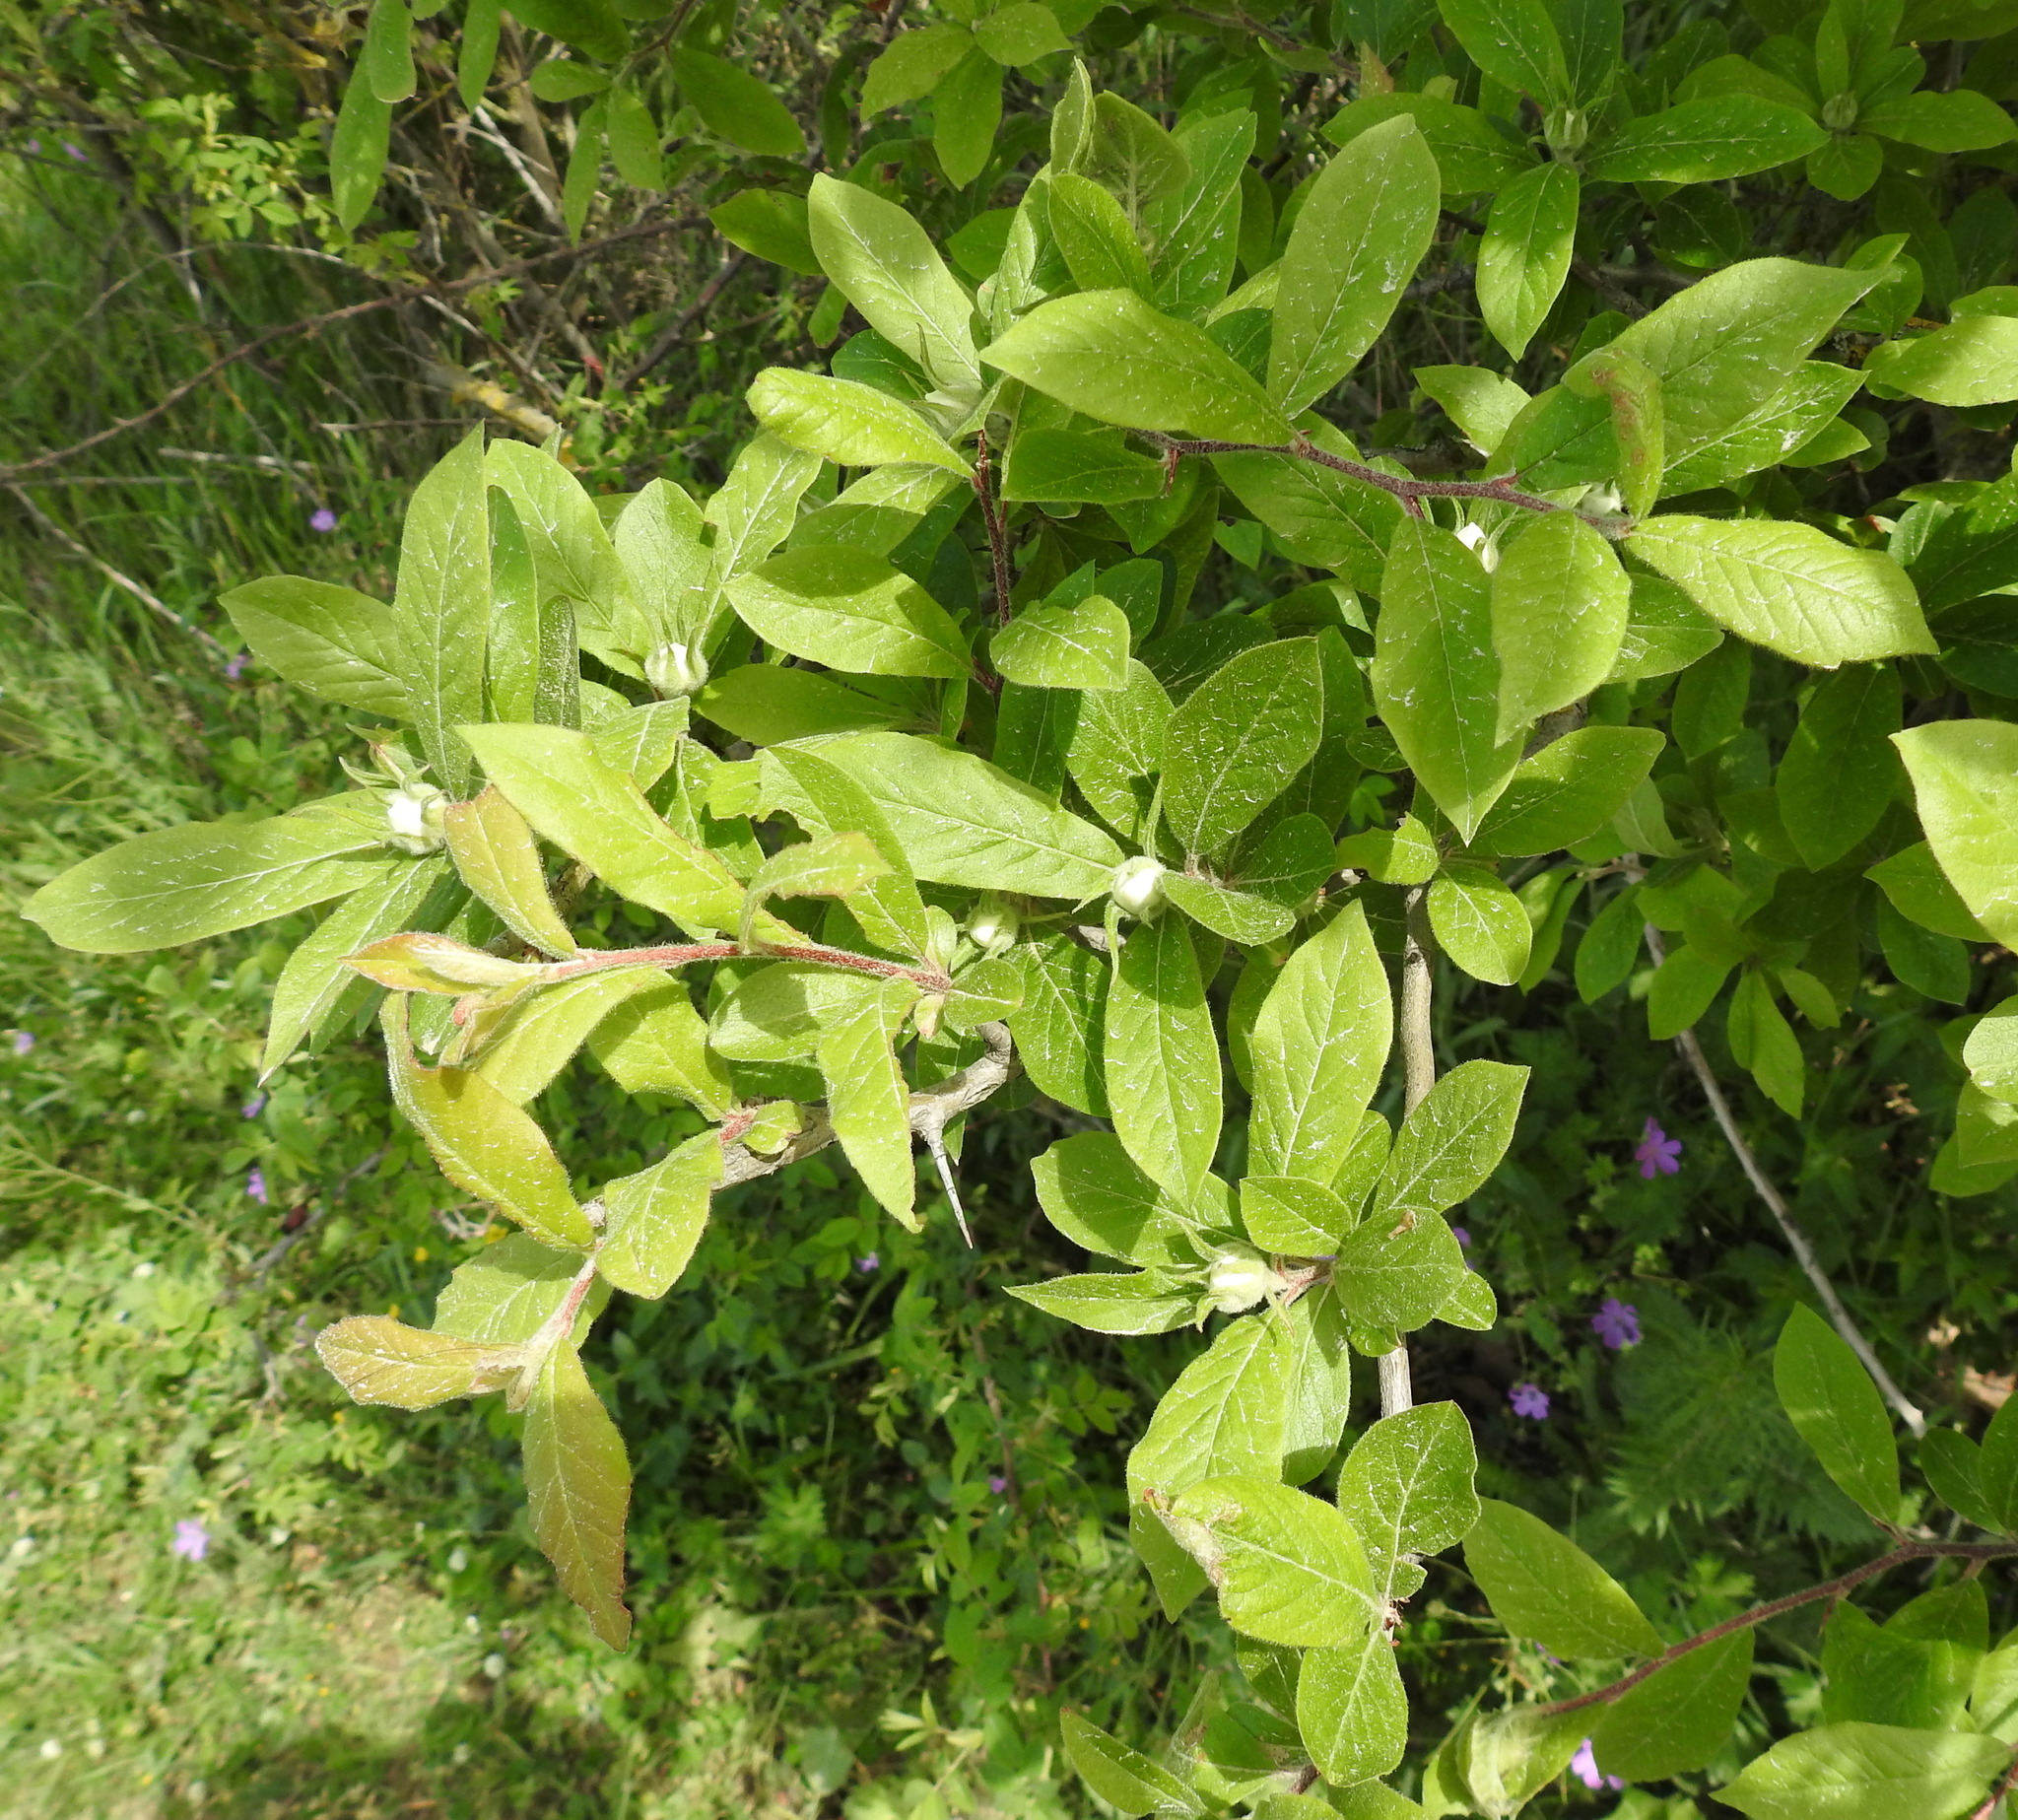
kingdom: Plantae
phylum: Tracheophyta
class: Magnoliopsida
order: Rosales
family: Rosaceae
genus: Mespilus
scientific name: Mespilus germanica
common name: Medlar
